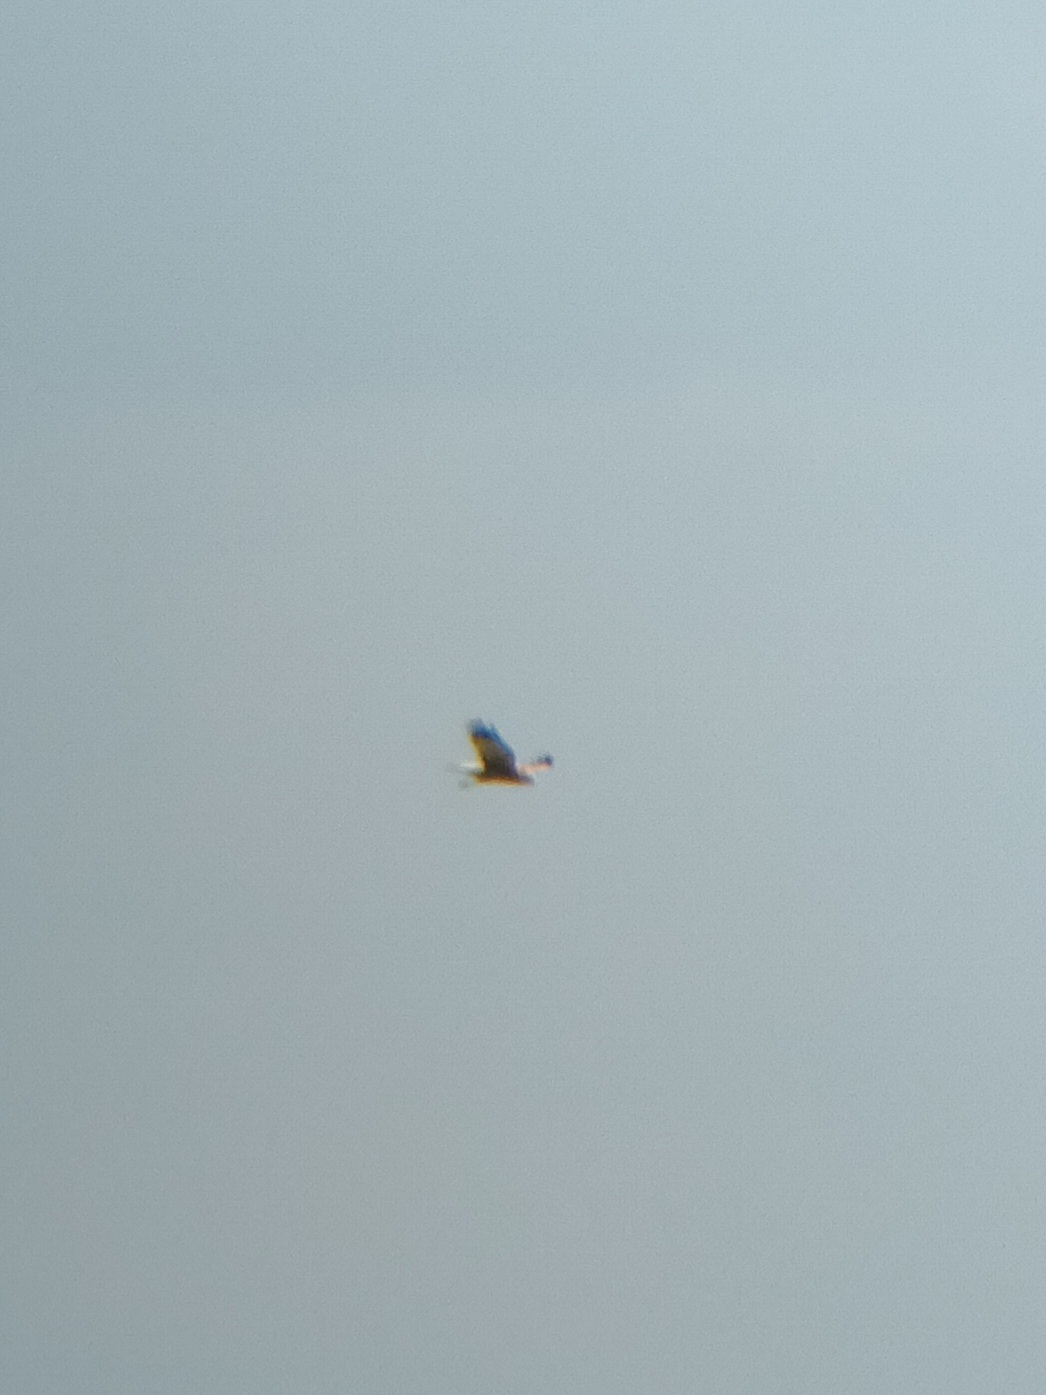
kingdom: Animalia
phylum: Chordata
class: Aves
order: Accipitriformes
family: Accipitridae
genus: Circus
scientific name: Circus aeruginosus
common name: Western marsh harrier
